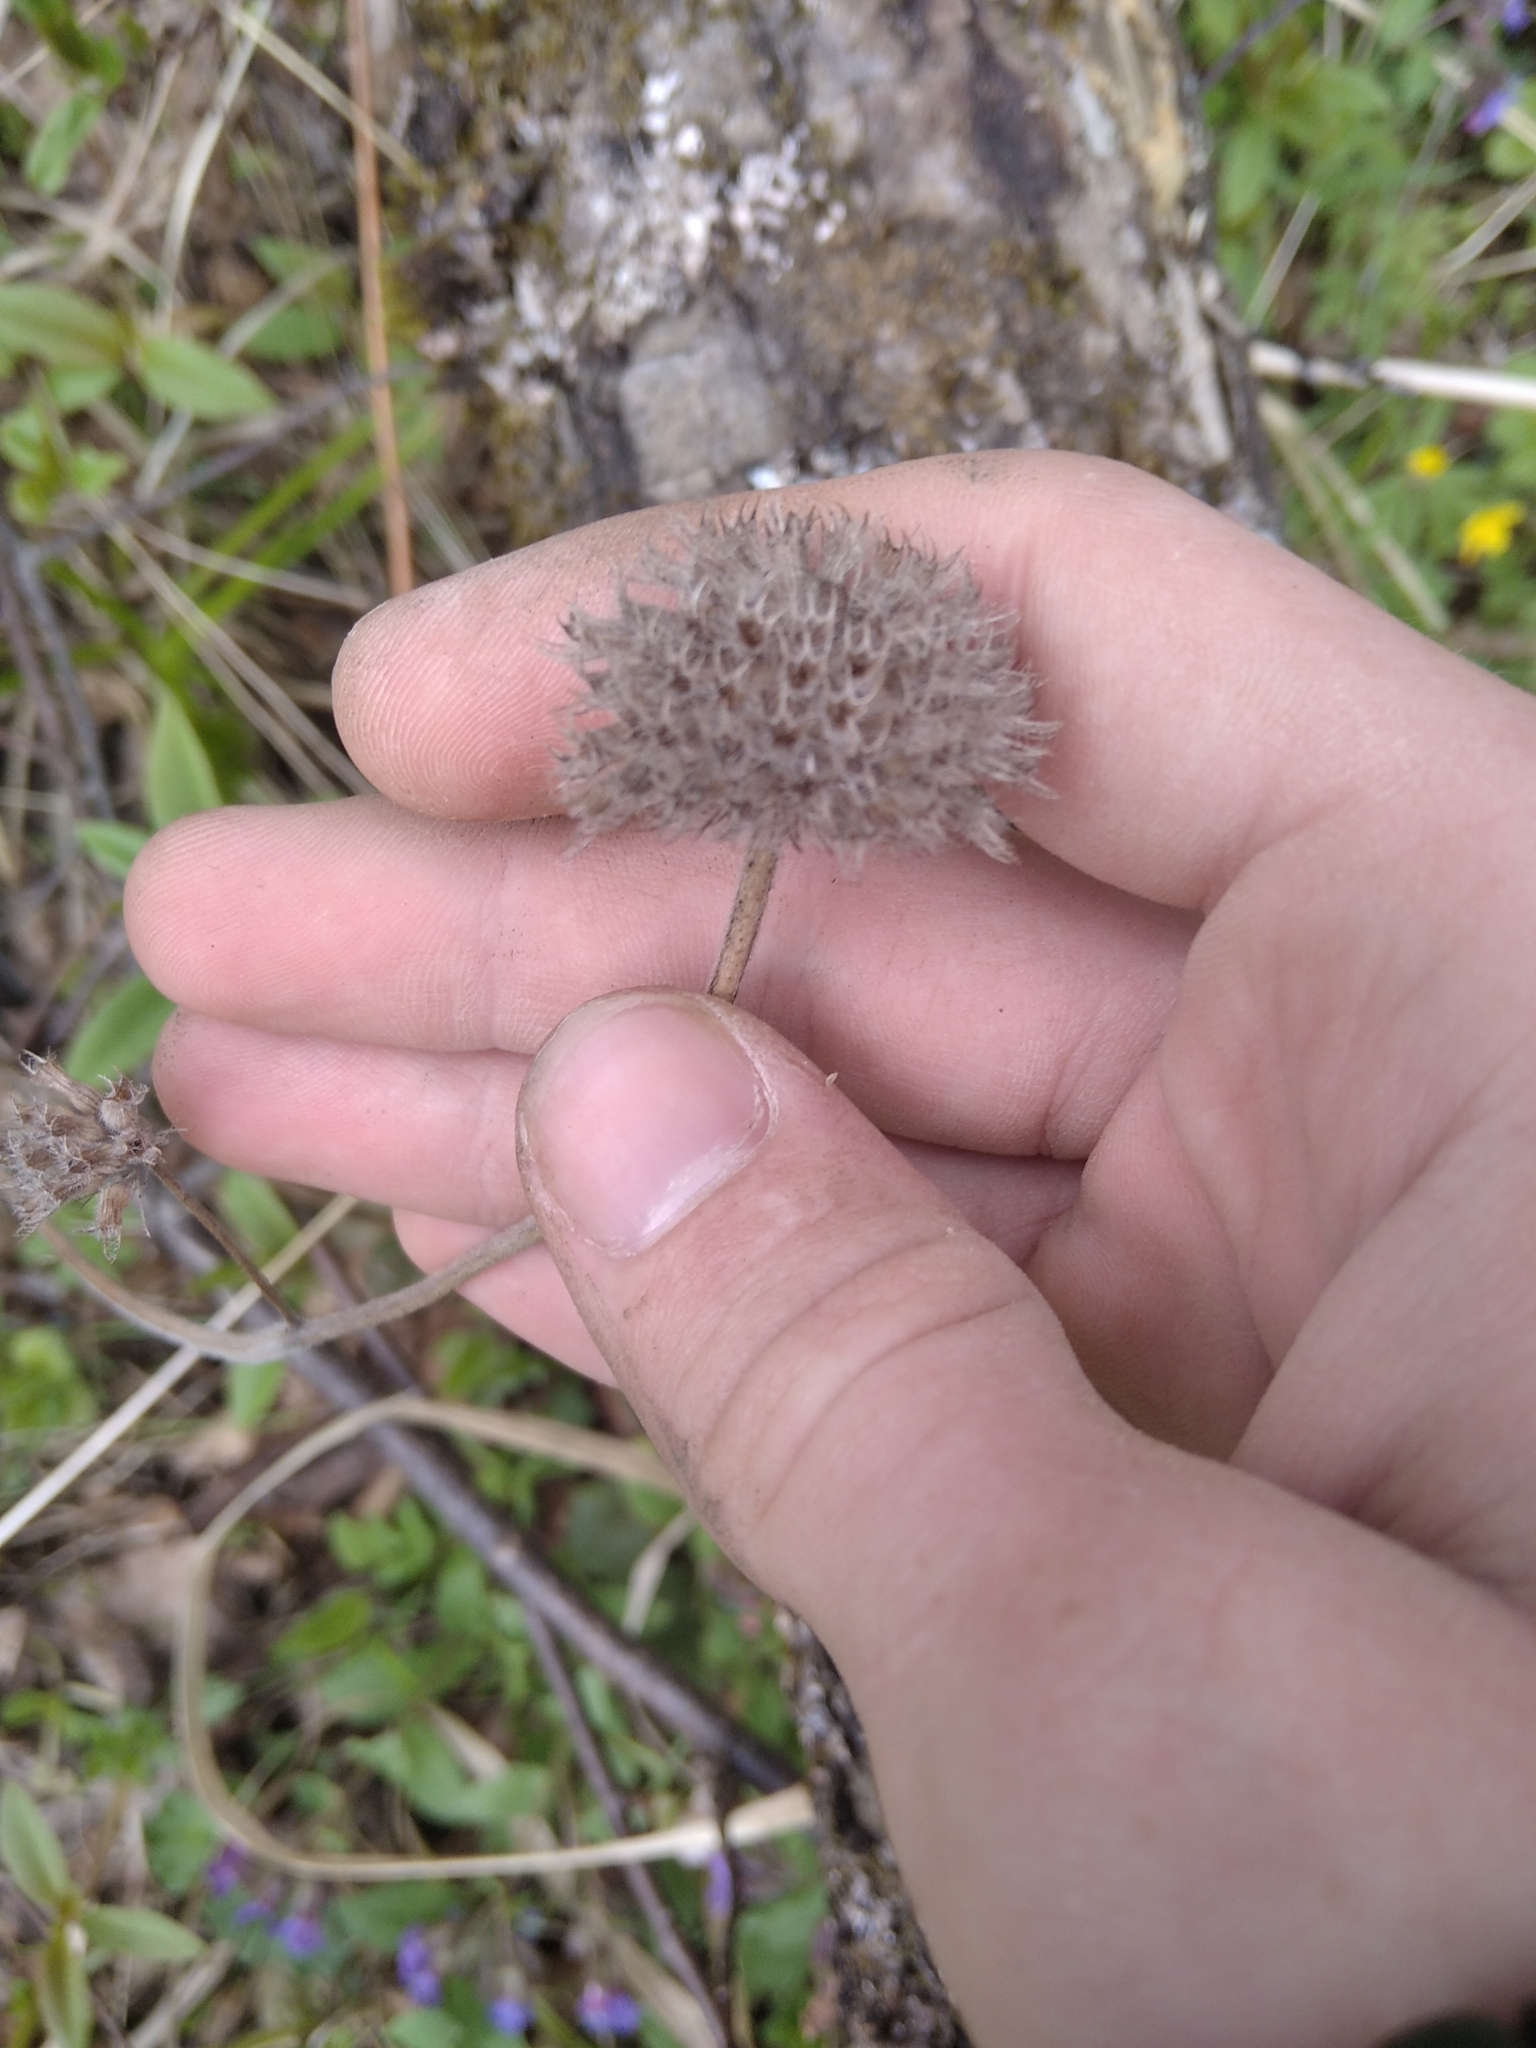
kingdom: Plantae
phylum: Tracheophyta
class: Magnoliopsida
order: Lamiales
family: Lamiaceae
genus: Clinopodium
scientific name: Clinopodium vulgare
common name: Wild basil
